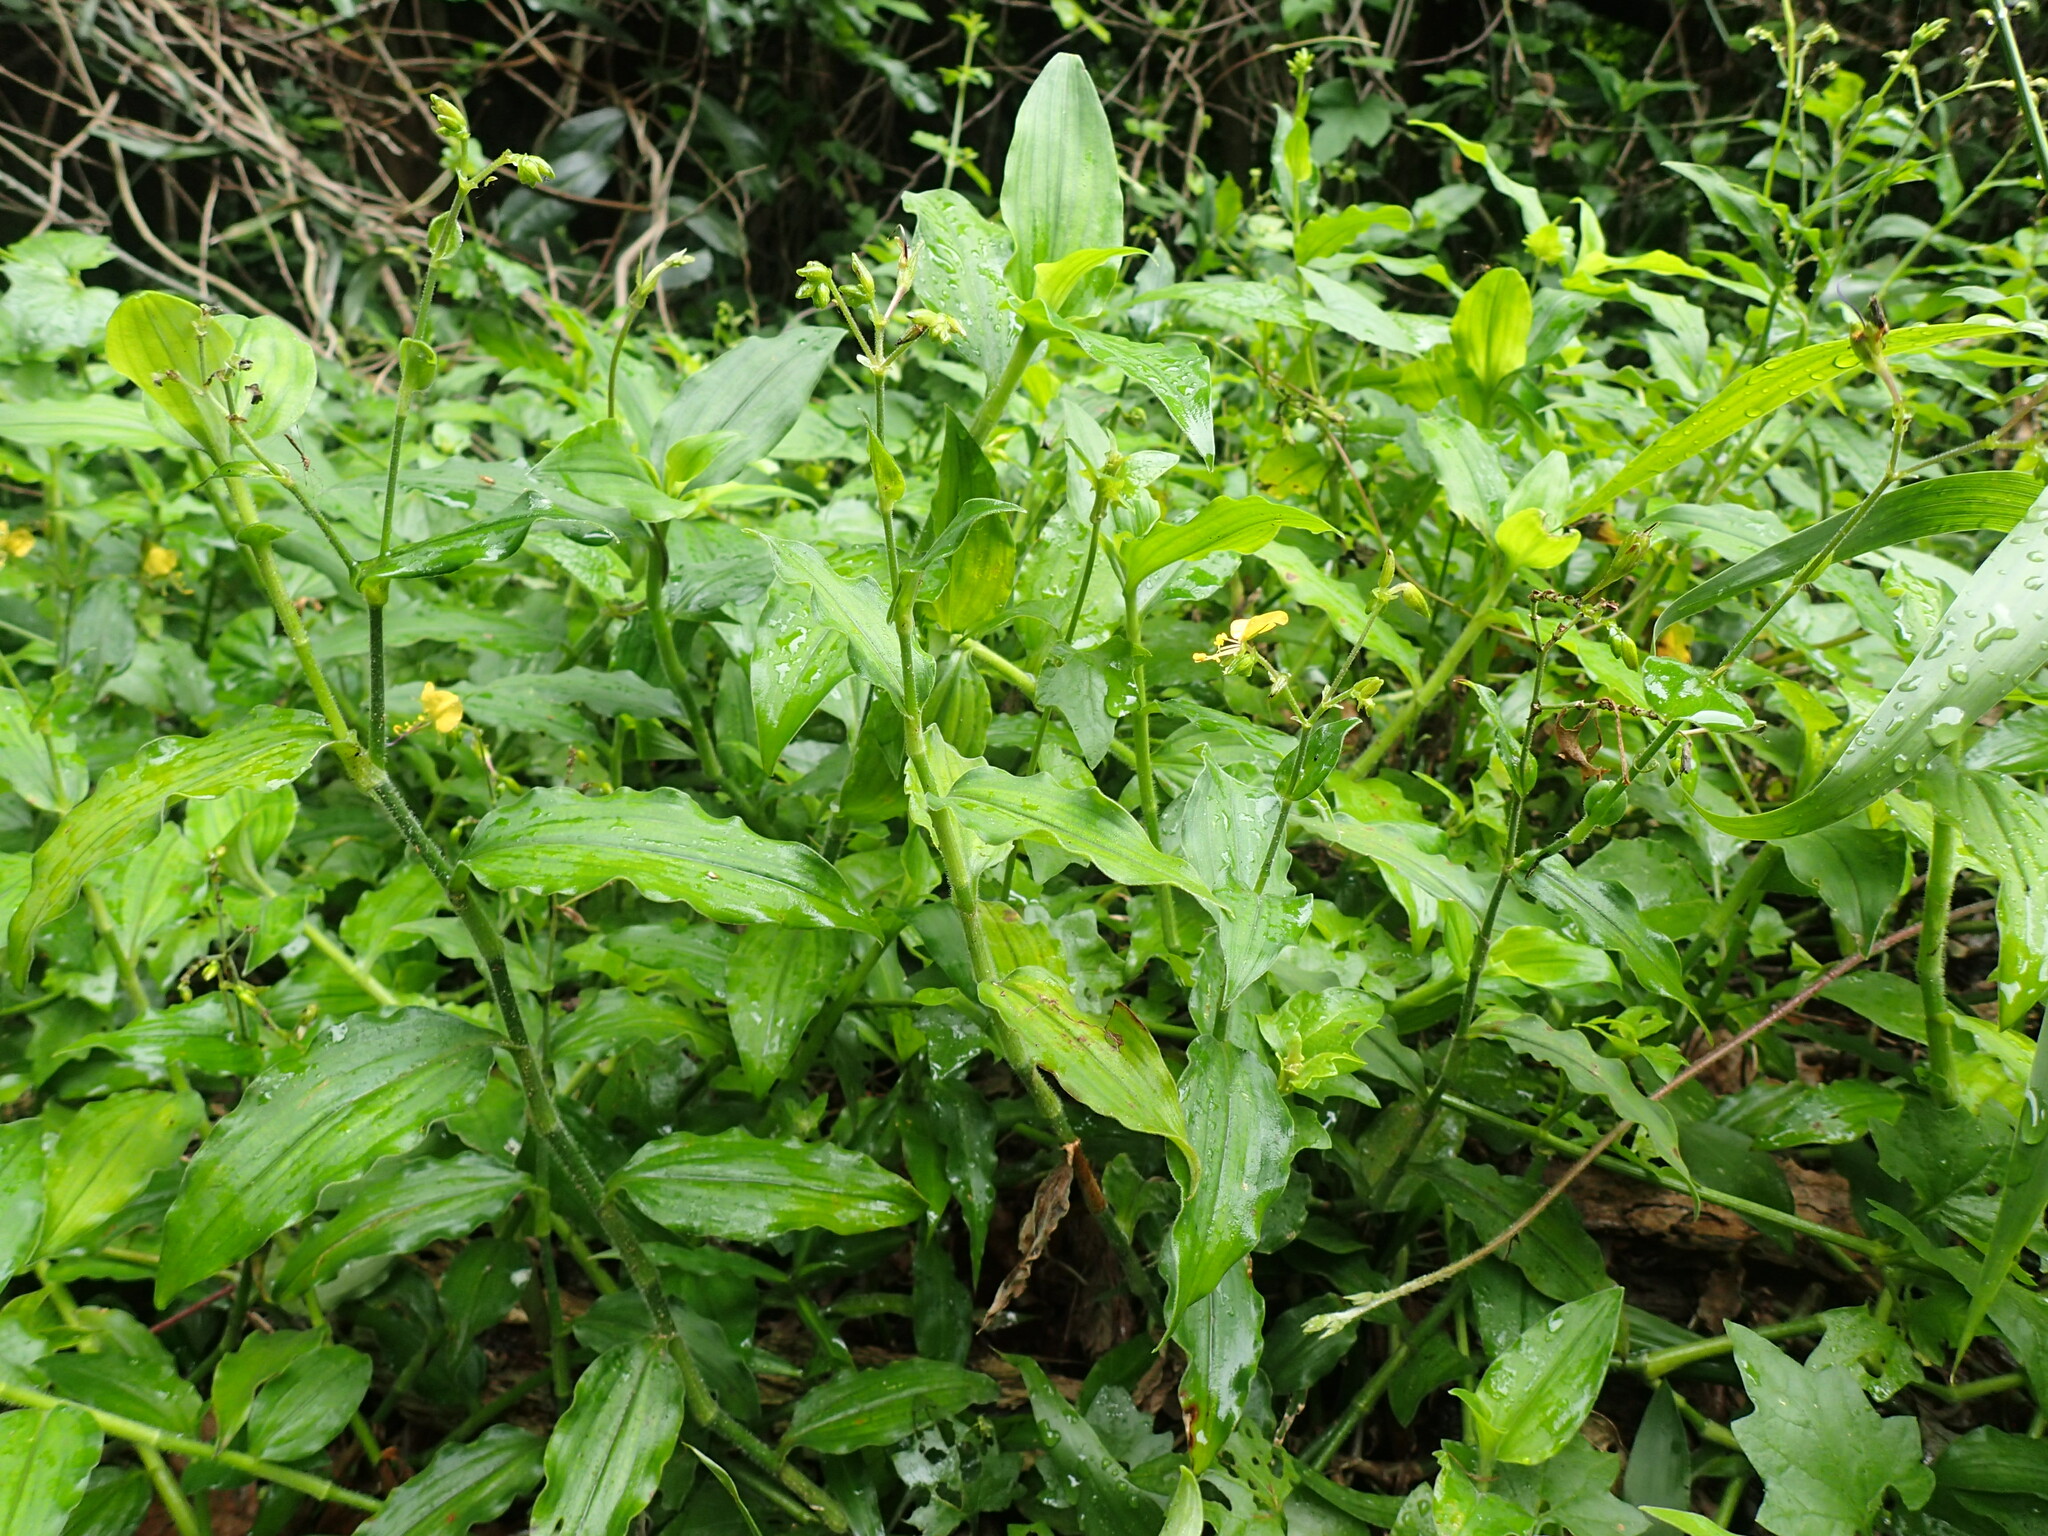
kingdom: Plantae
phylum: Tracheophyta
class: Liliopsida
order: Commelinales
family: Commelinaceae
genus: Aneilema
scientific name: Aneilema aequinoctiale
